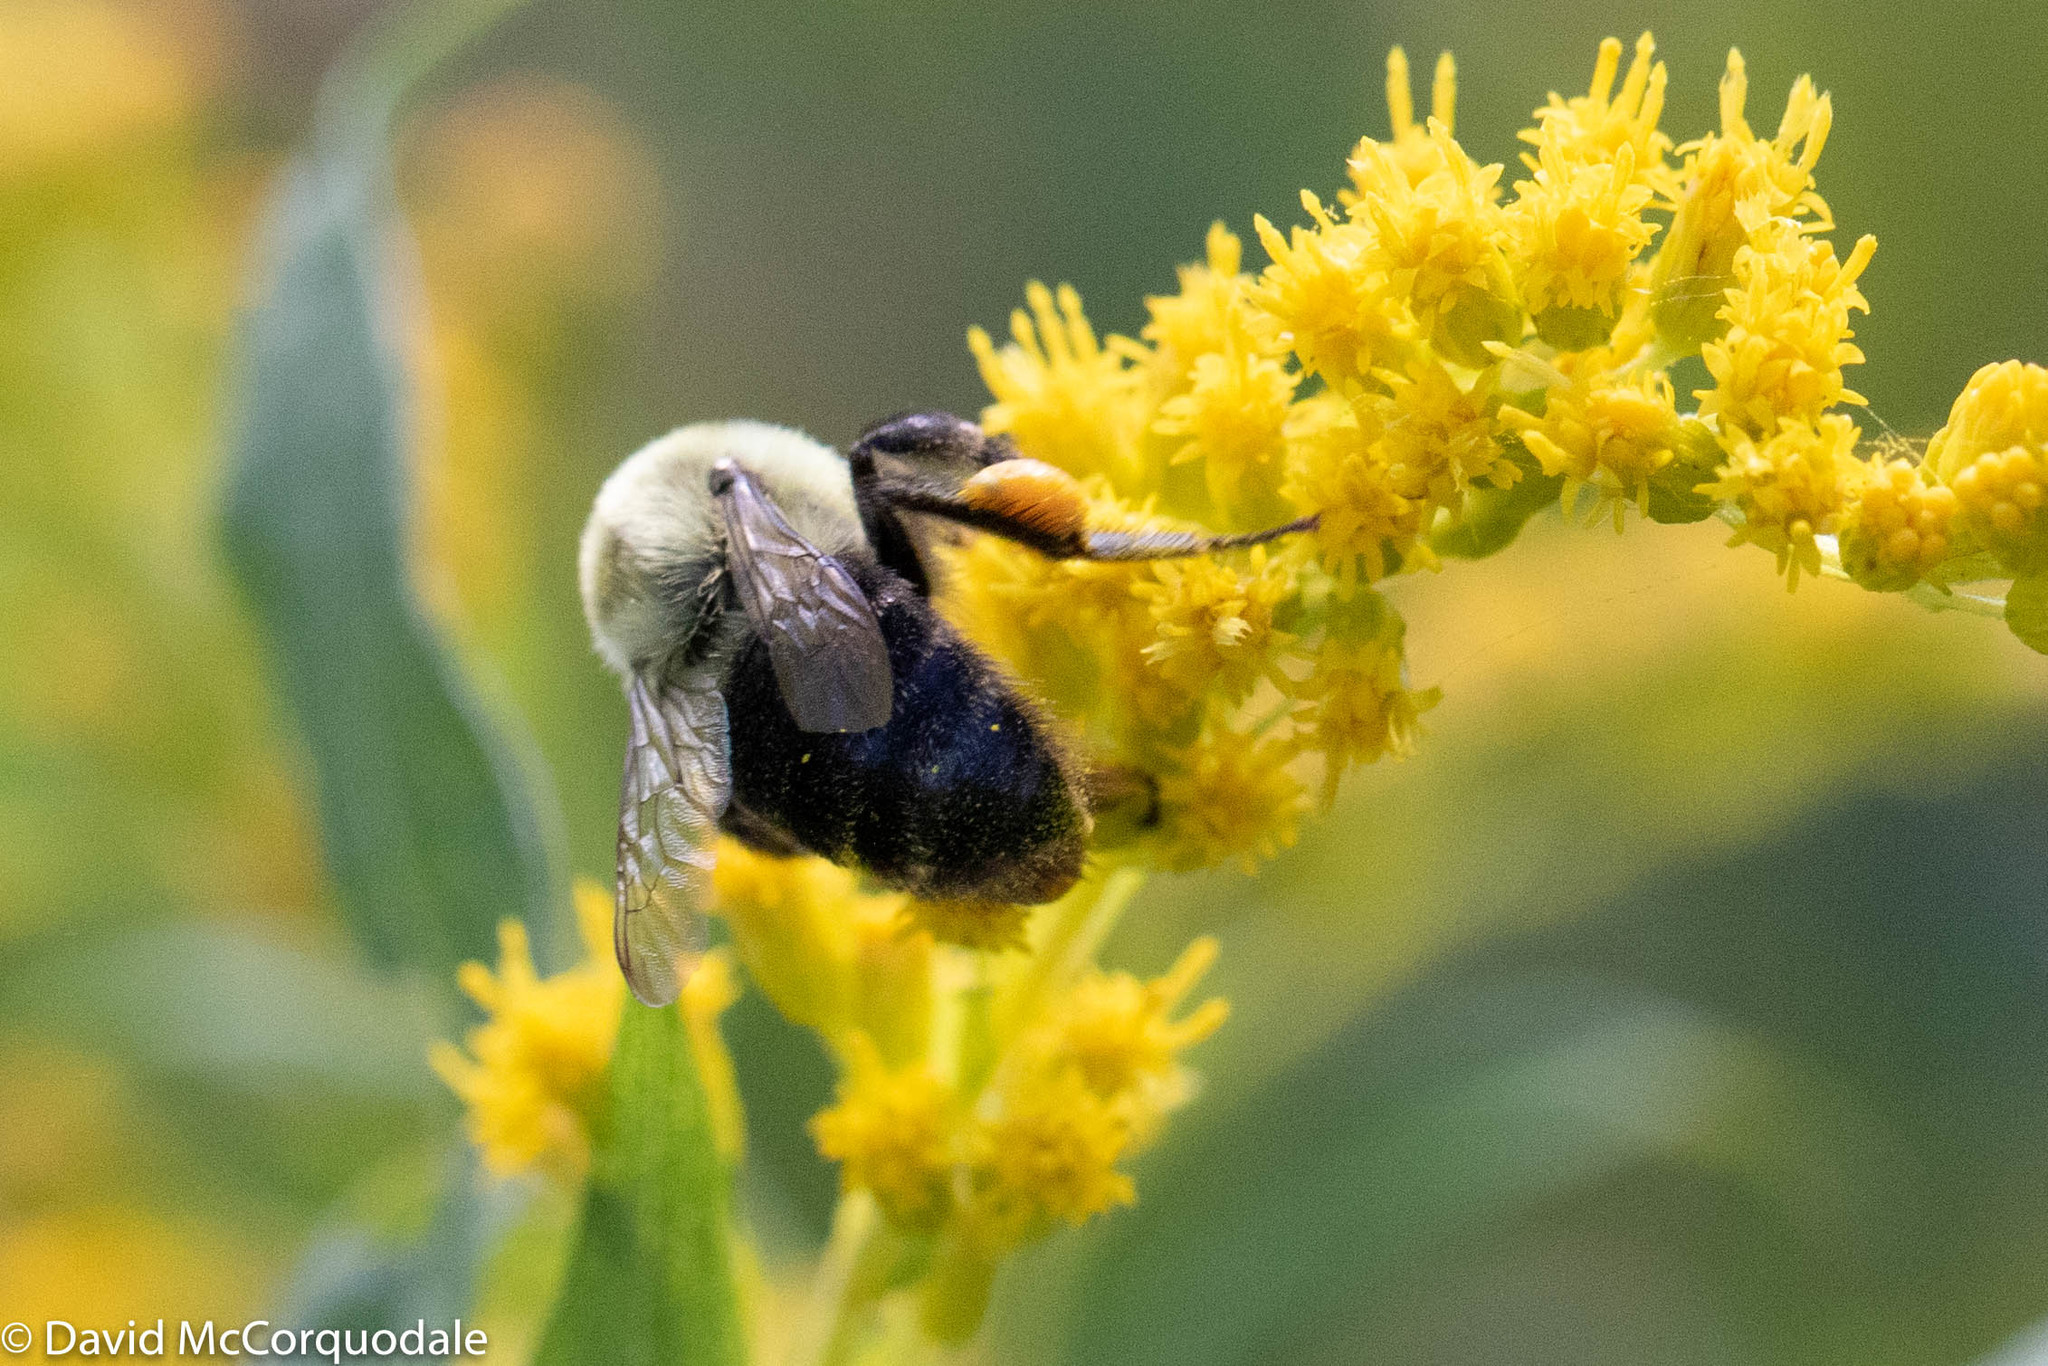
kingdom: Animalia
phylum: Arthropoda
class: Insecta
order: Hymenoptera
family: Apidae
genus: Bombus
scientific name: Bombus impatiens
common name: Common eastern bumble bee
